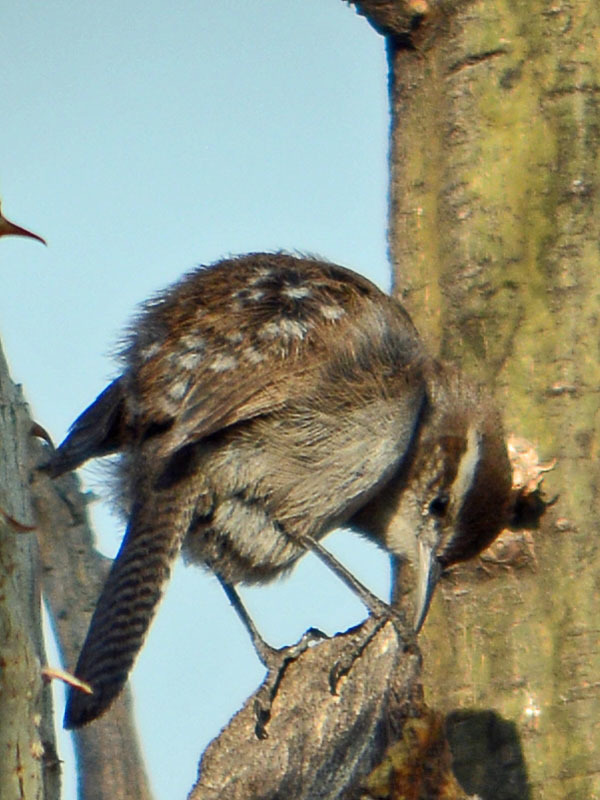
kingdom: Animalia
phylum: Chordata
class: Aves
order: Passeriformes
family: Troglodytidae
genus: Thryomanes
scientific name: Thryomanes bewickii
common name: Bewick's wren
